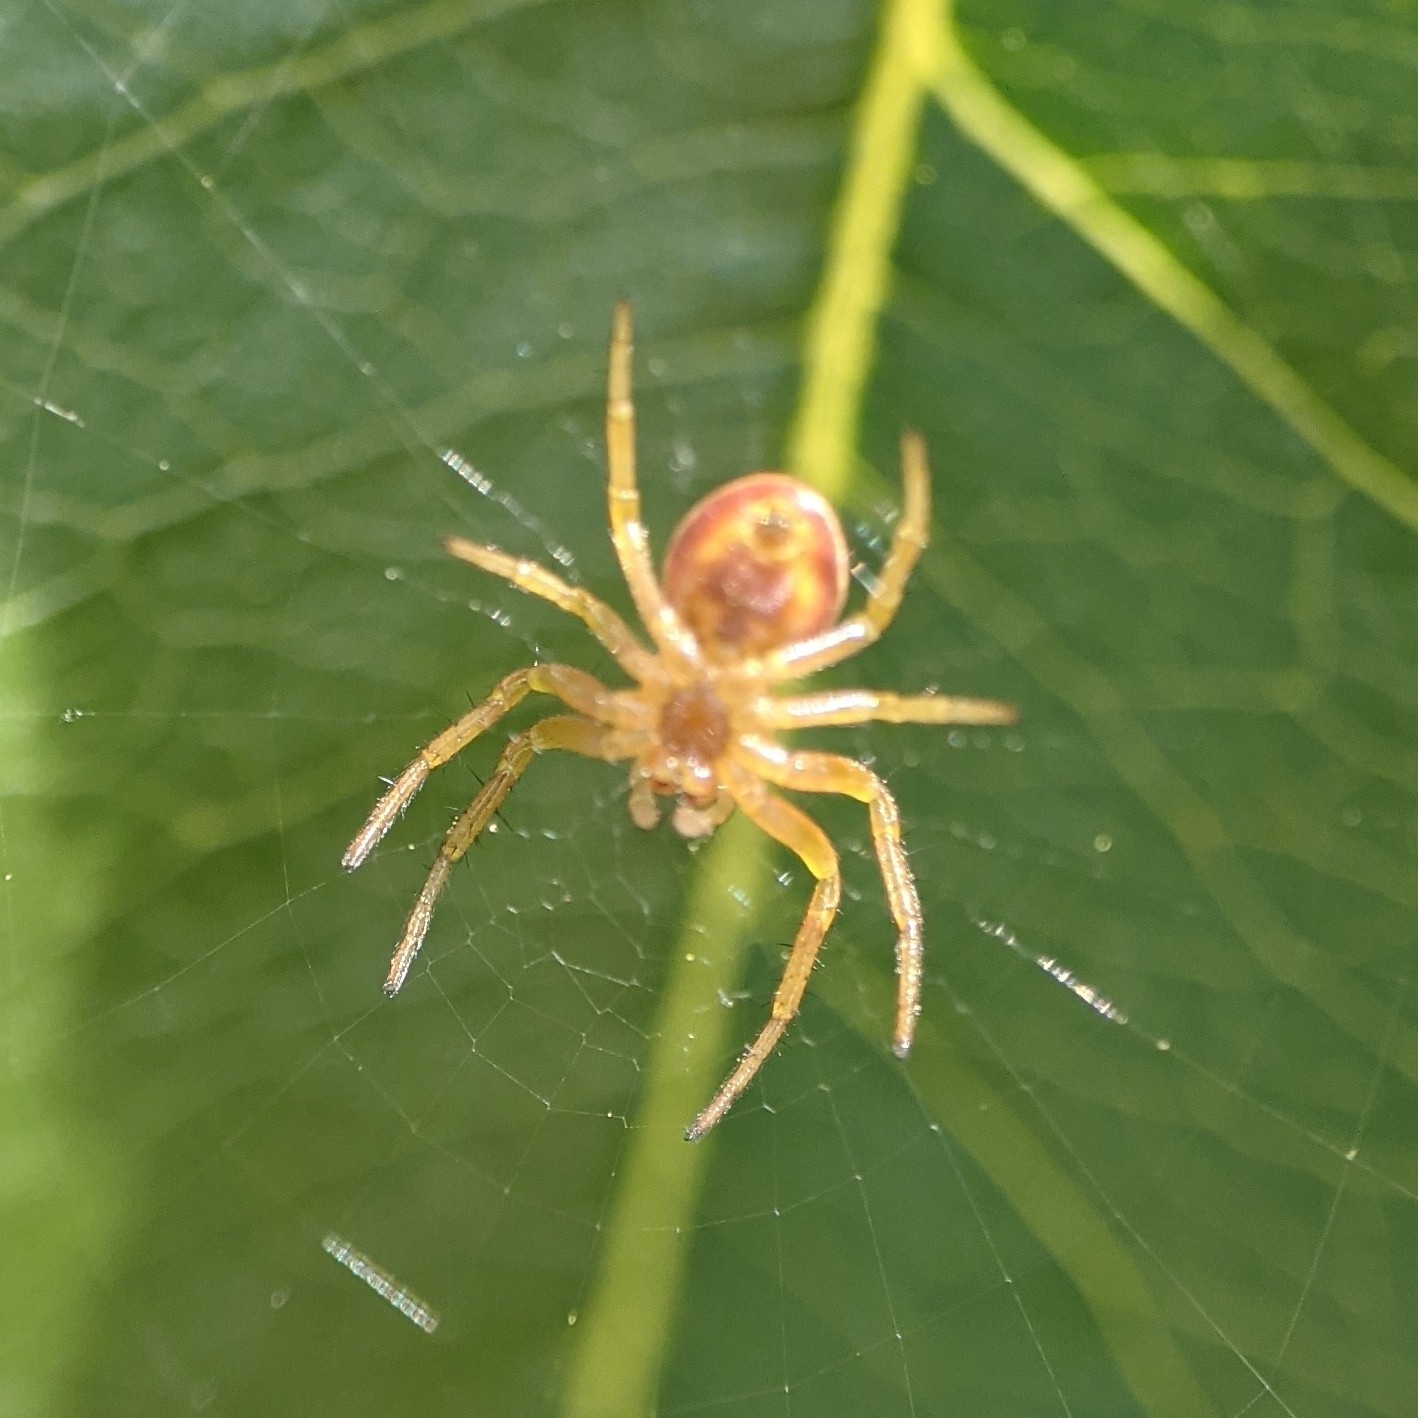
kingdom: Animalia
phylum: Arthropoda
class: Arachnida
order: Araneae
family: Araneidae
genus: Araniella
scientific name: Araniella displicata
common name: Sixspotted orb weaver
